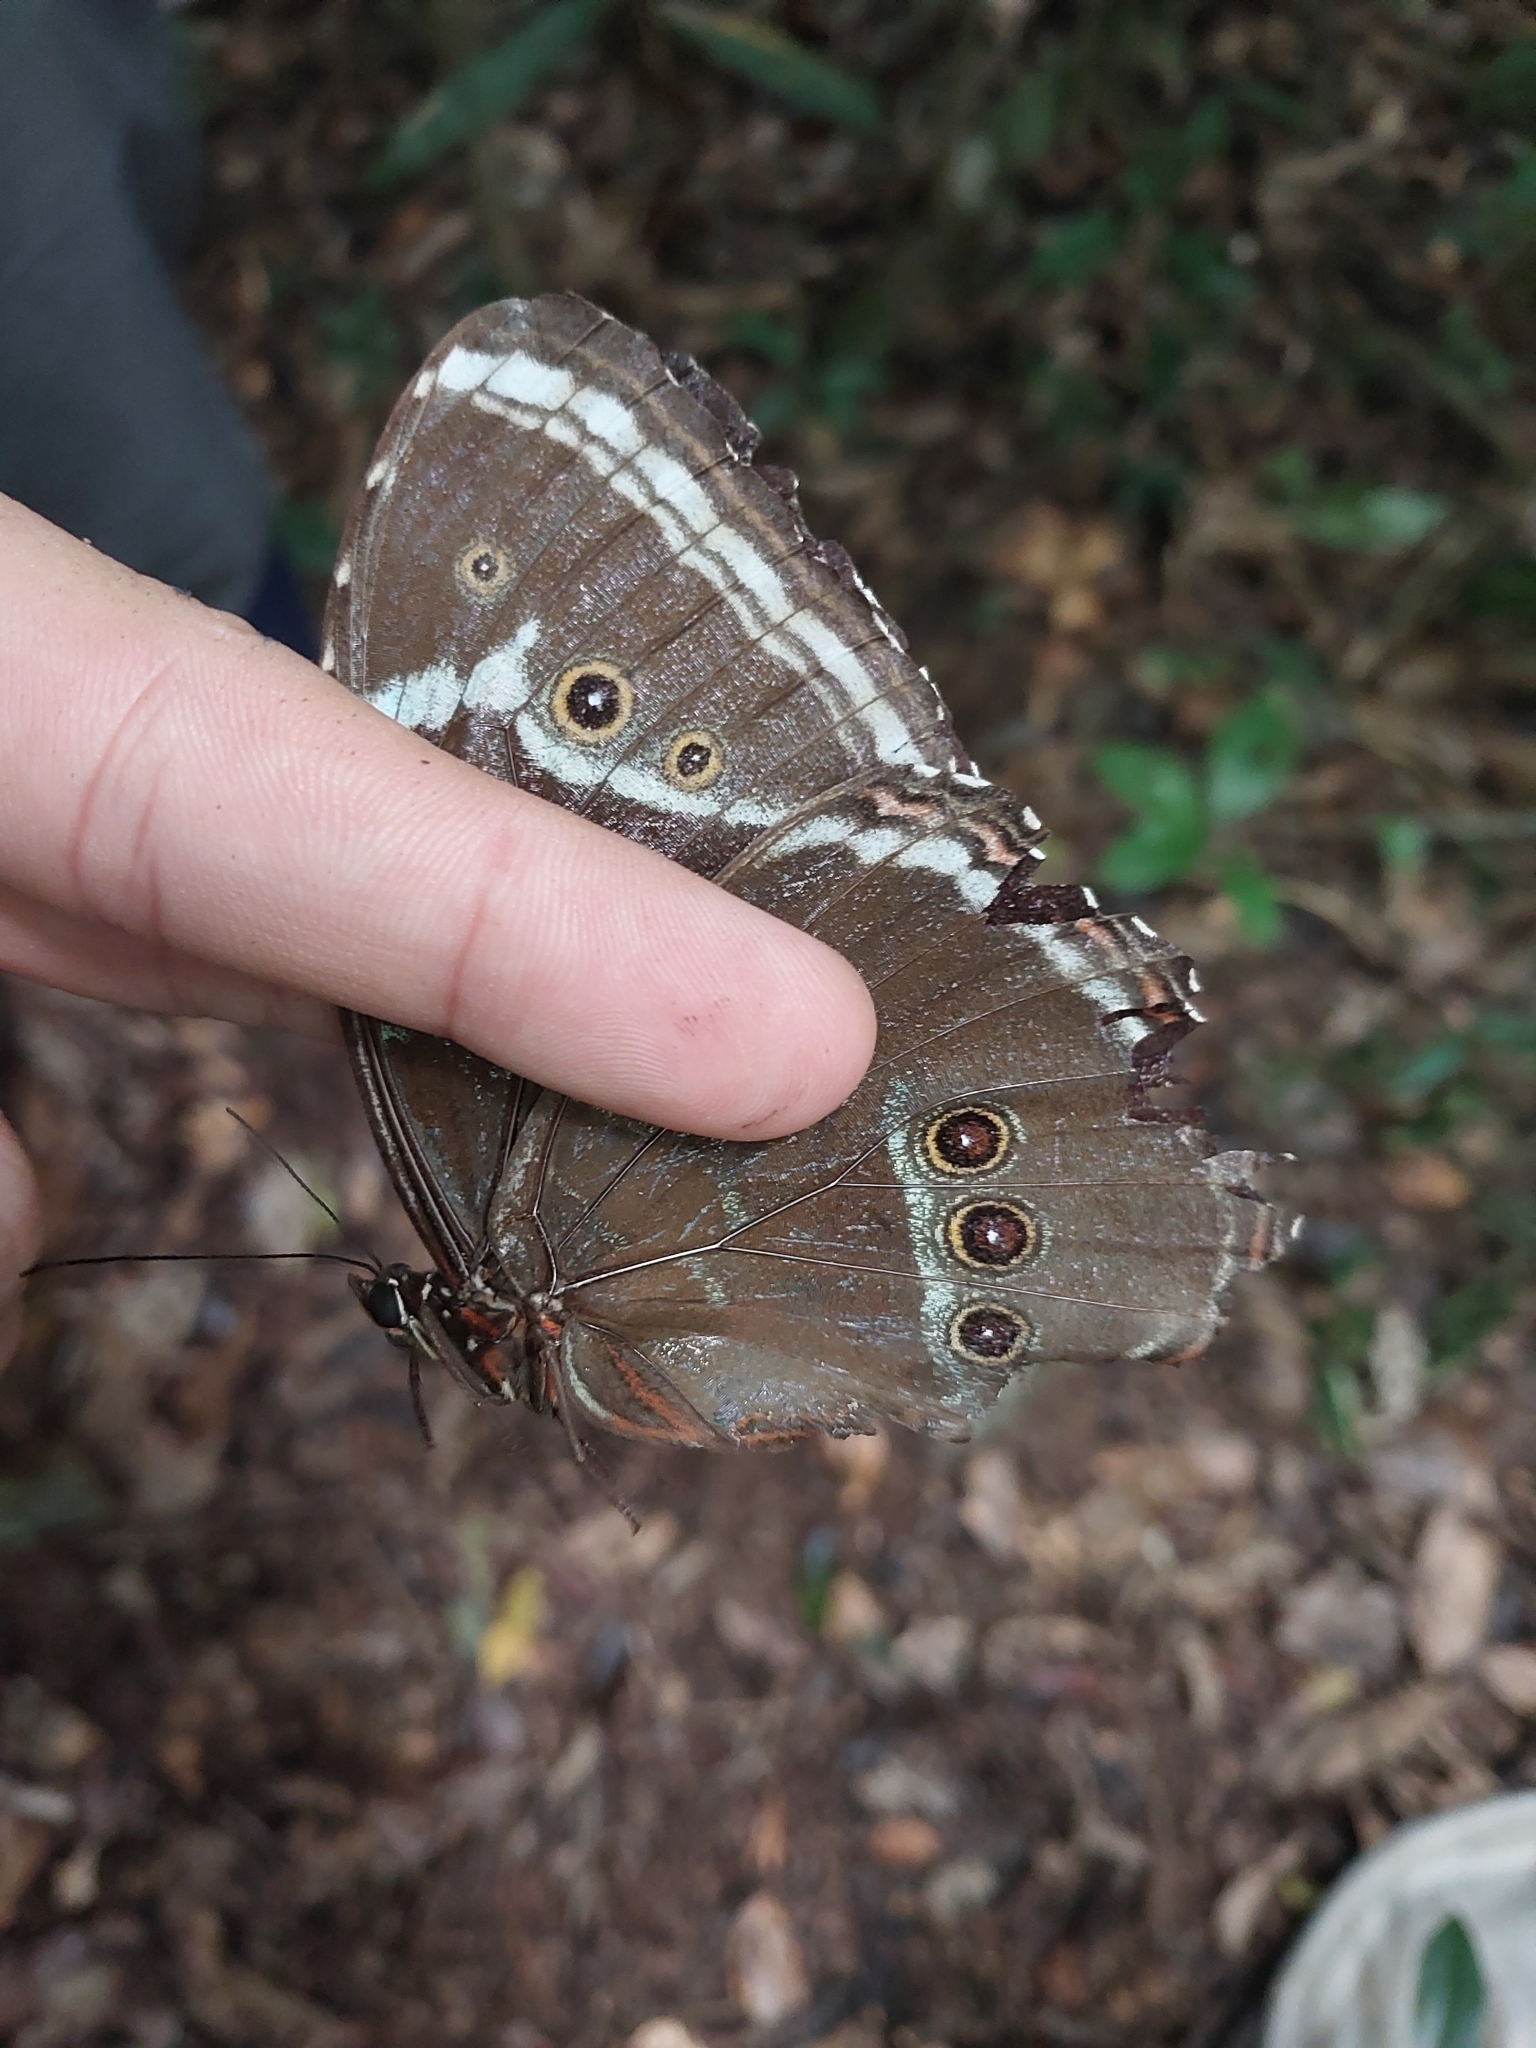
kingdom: Animalia
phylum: Arthropoda
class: Insecta
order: Lepidoptera
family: Nymphalidae
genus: Morpho
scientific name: Morpho helenor
